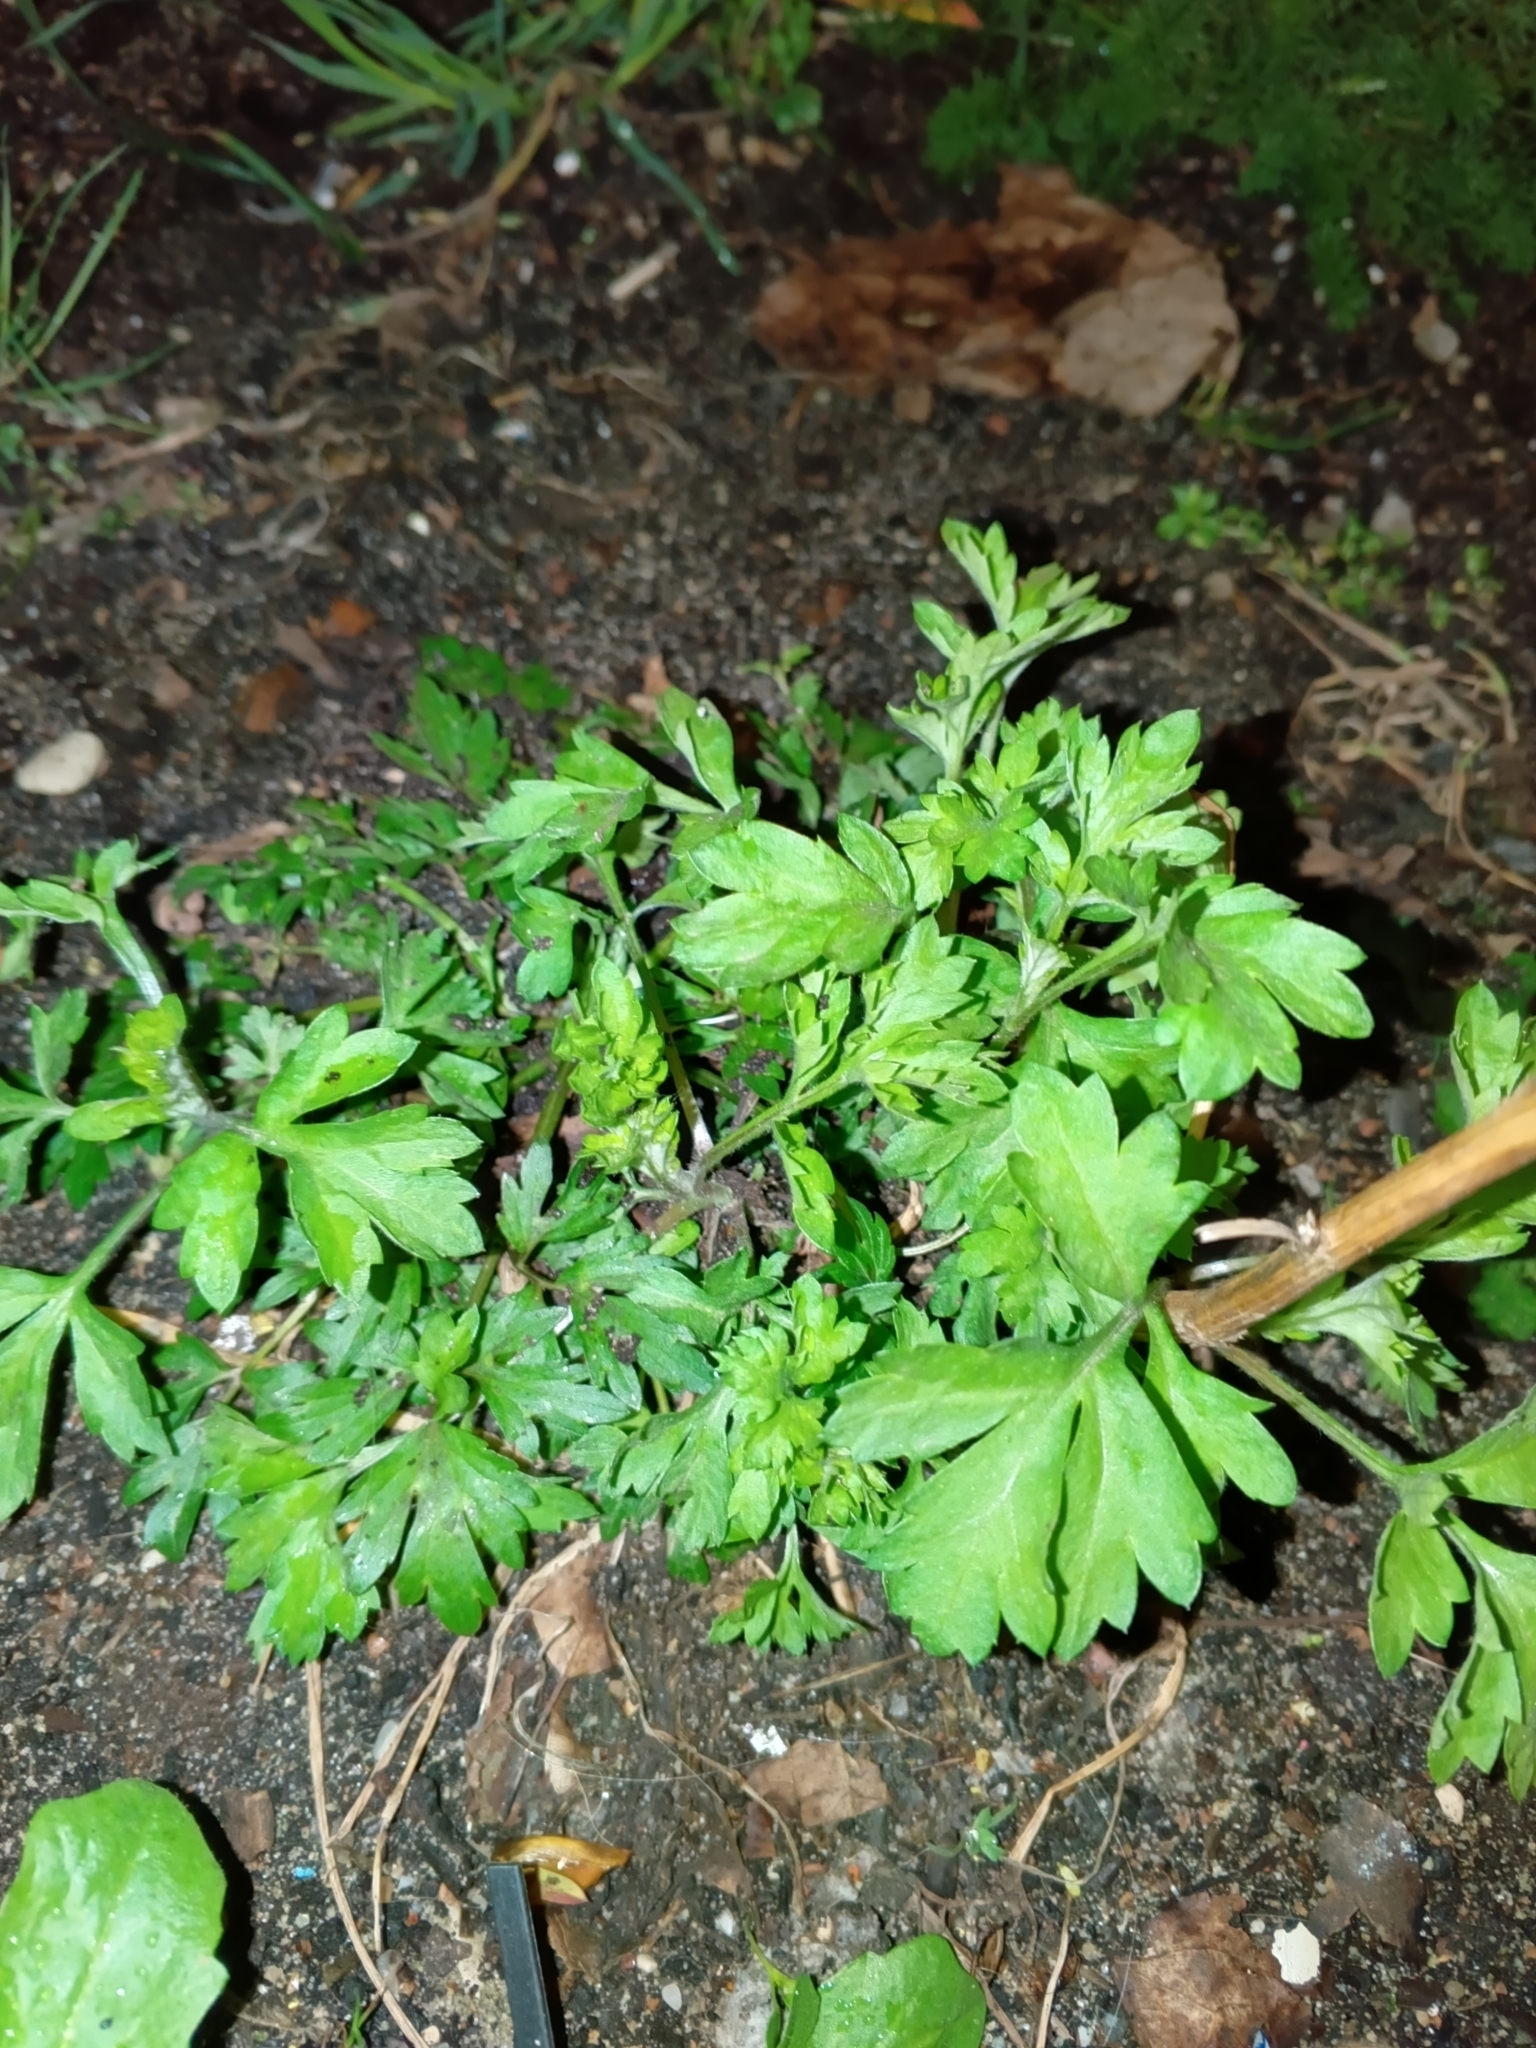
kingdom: Plantae
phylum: Tracheophyta
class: Magnoliopsida
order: Asterales
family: Asteraceae
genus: Artemisia
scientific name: Artemisia vulgaris
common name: Mugwort
